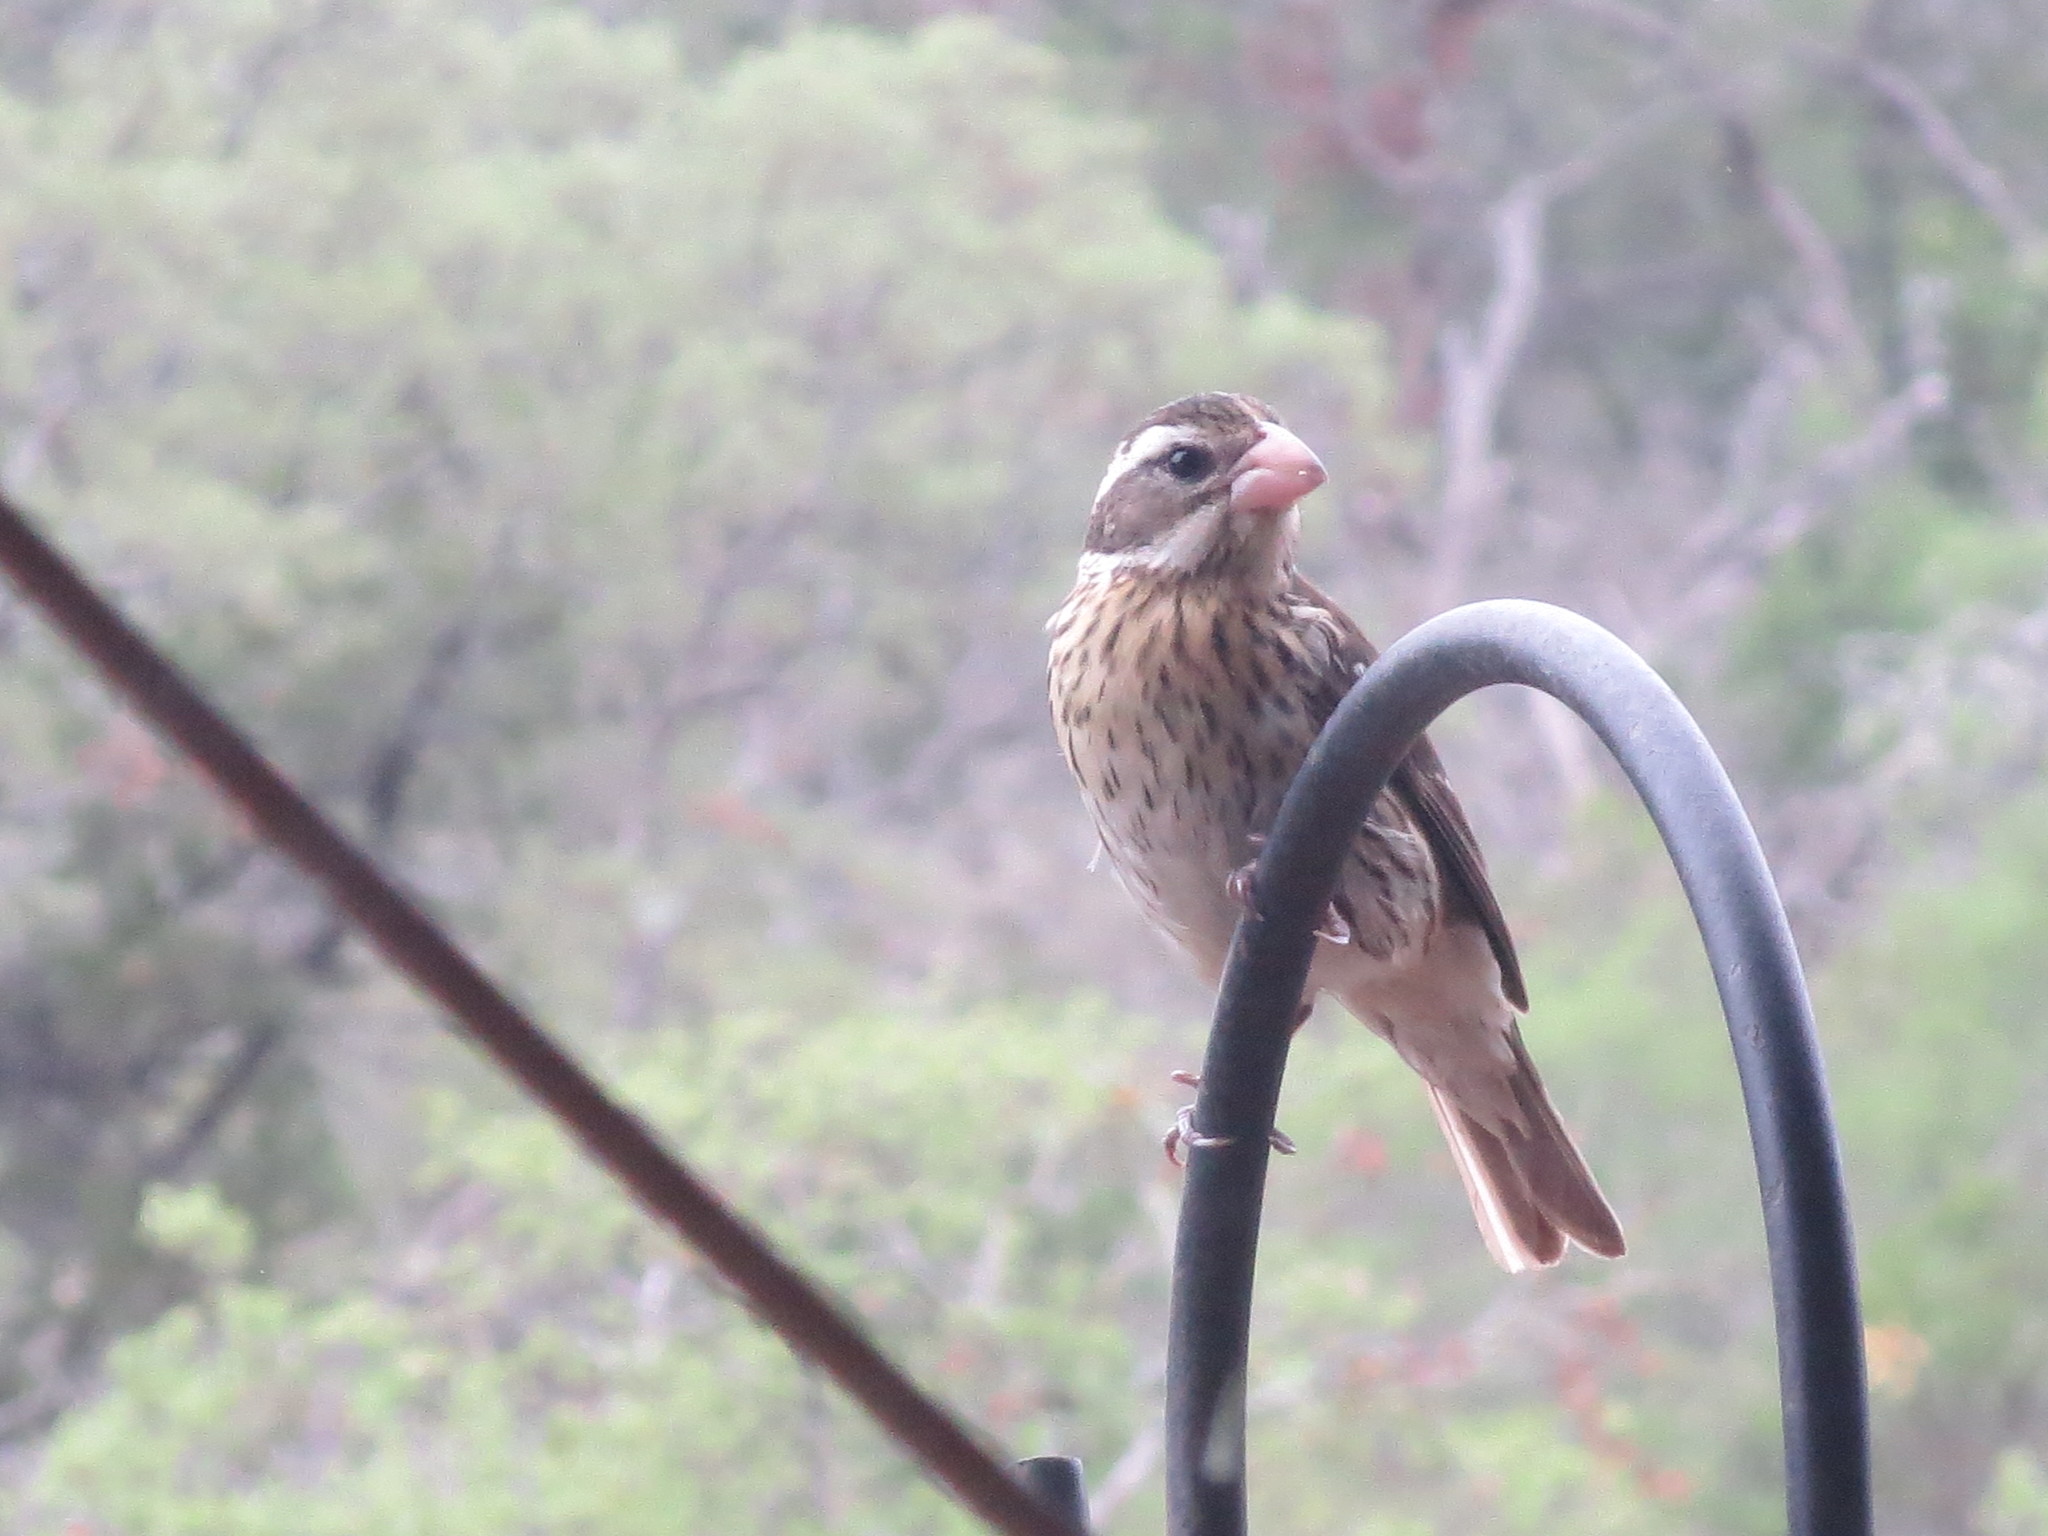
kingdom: Animalia
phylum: Chordata
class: Aves
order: Passeriformes
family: Cardinalidae
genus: Pheucticus
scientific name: Pheucticus ludovicianus
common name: Rose-breasted grosbeak
